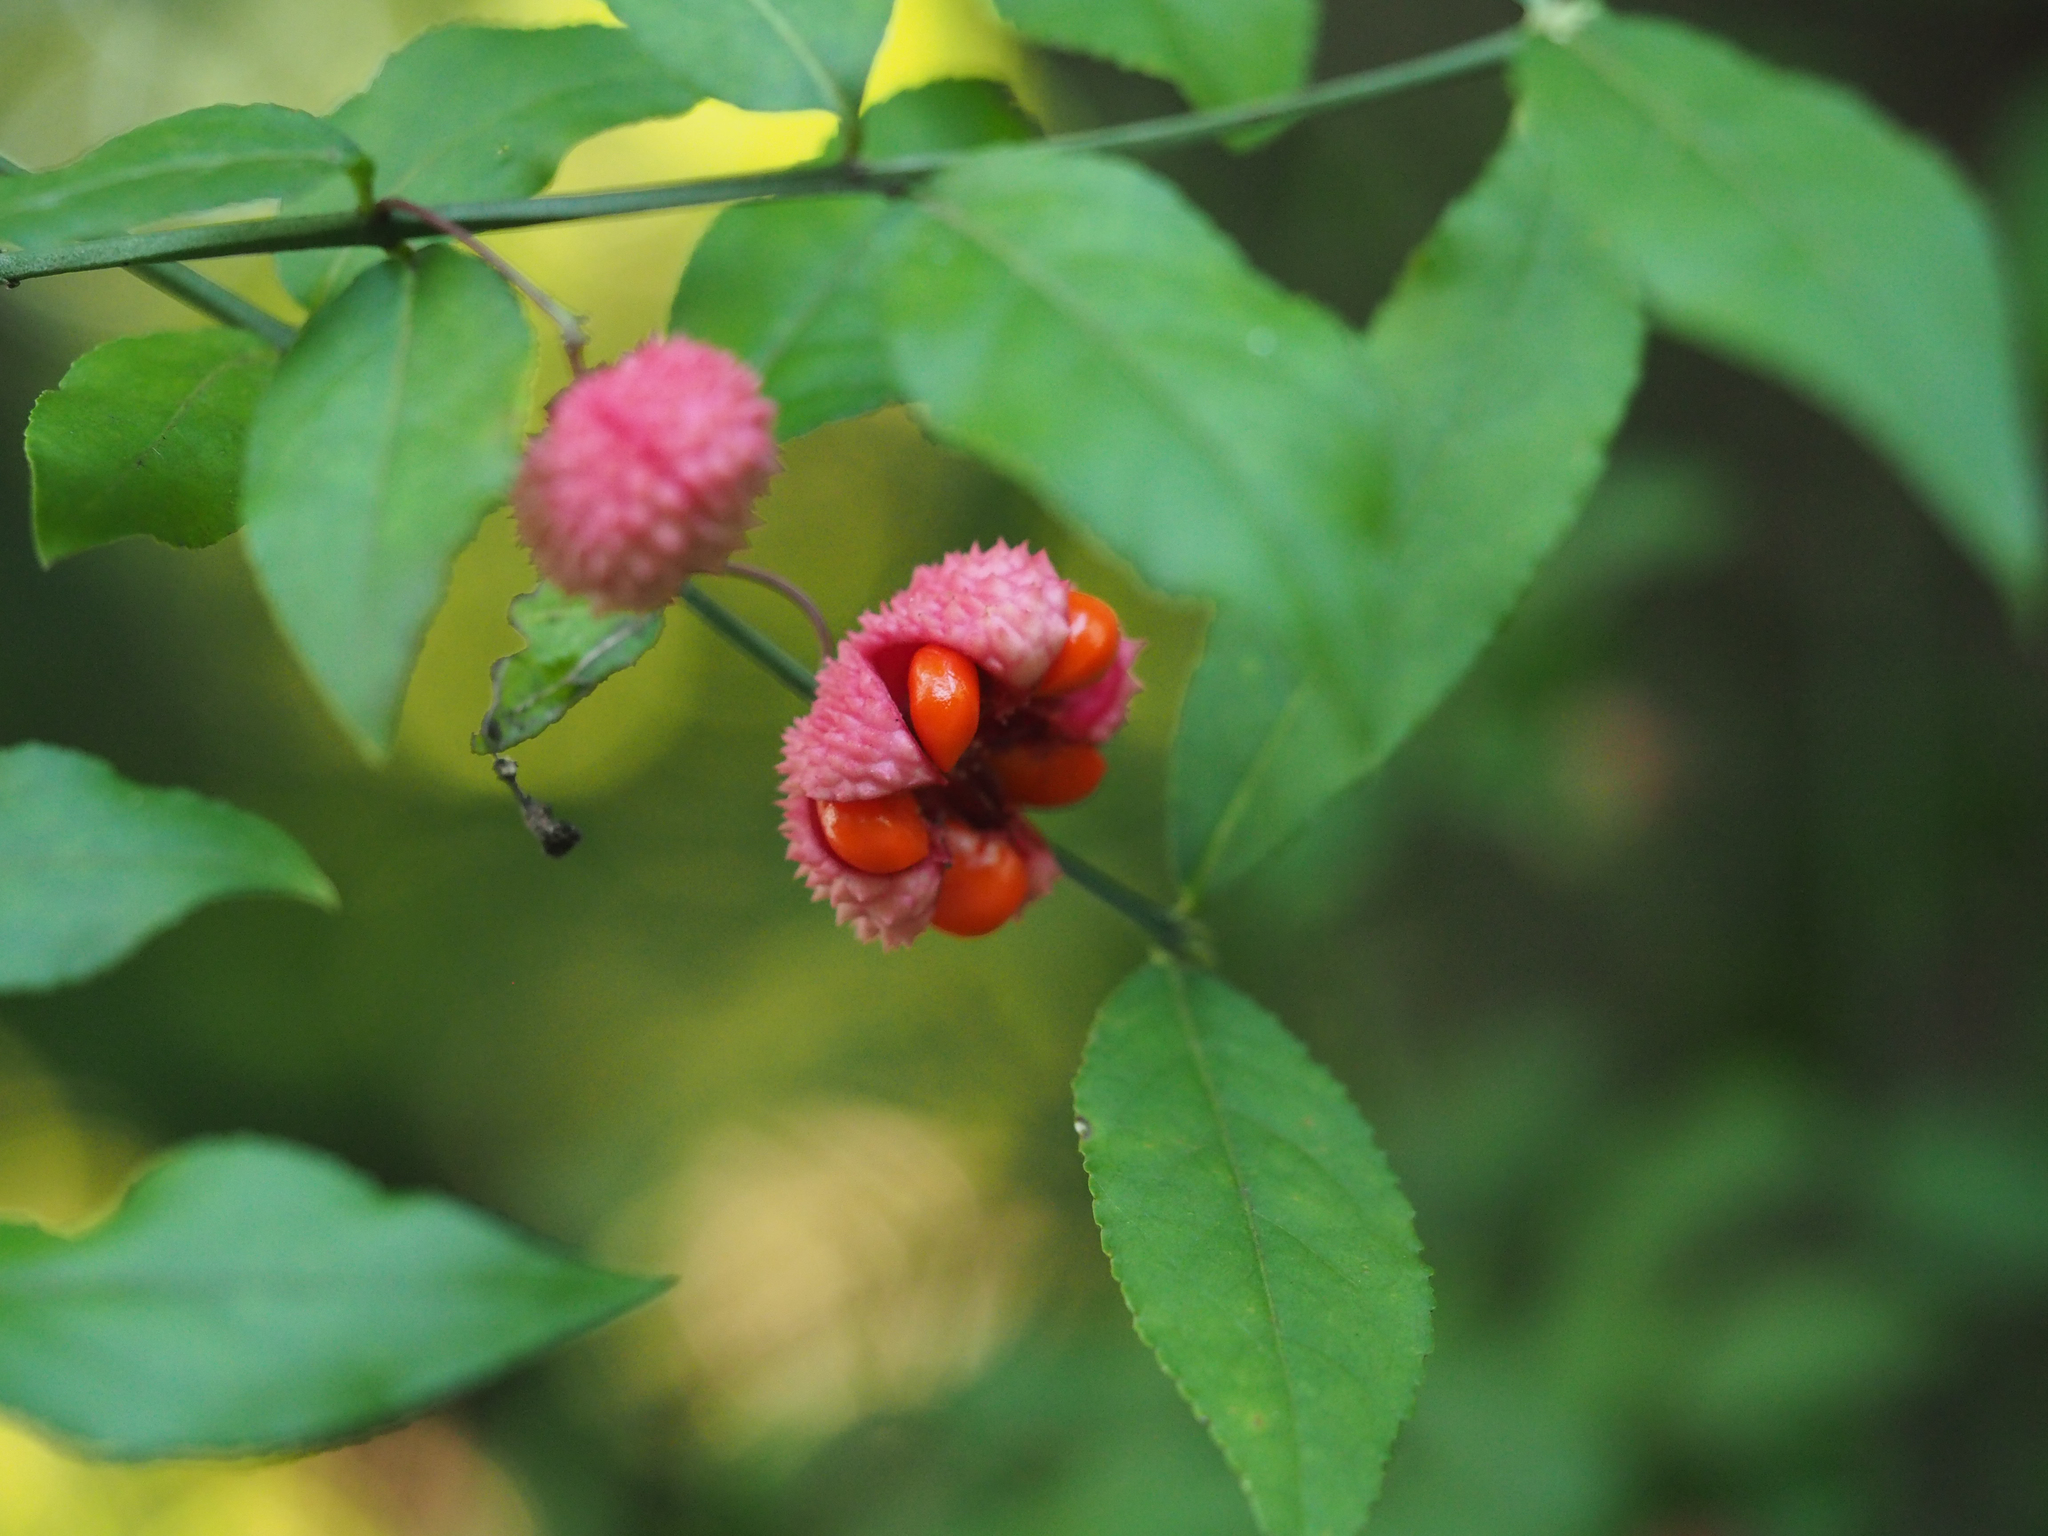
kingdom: Plantae
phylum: Tracheophyta
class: Magnoliopsida
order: Celastrales
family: Celastraceae
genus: Euonymus
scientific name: Euonymus americanus
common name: Bursting-heart
